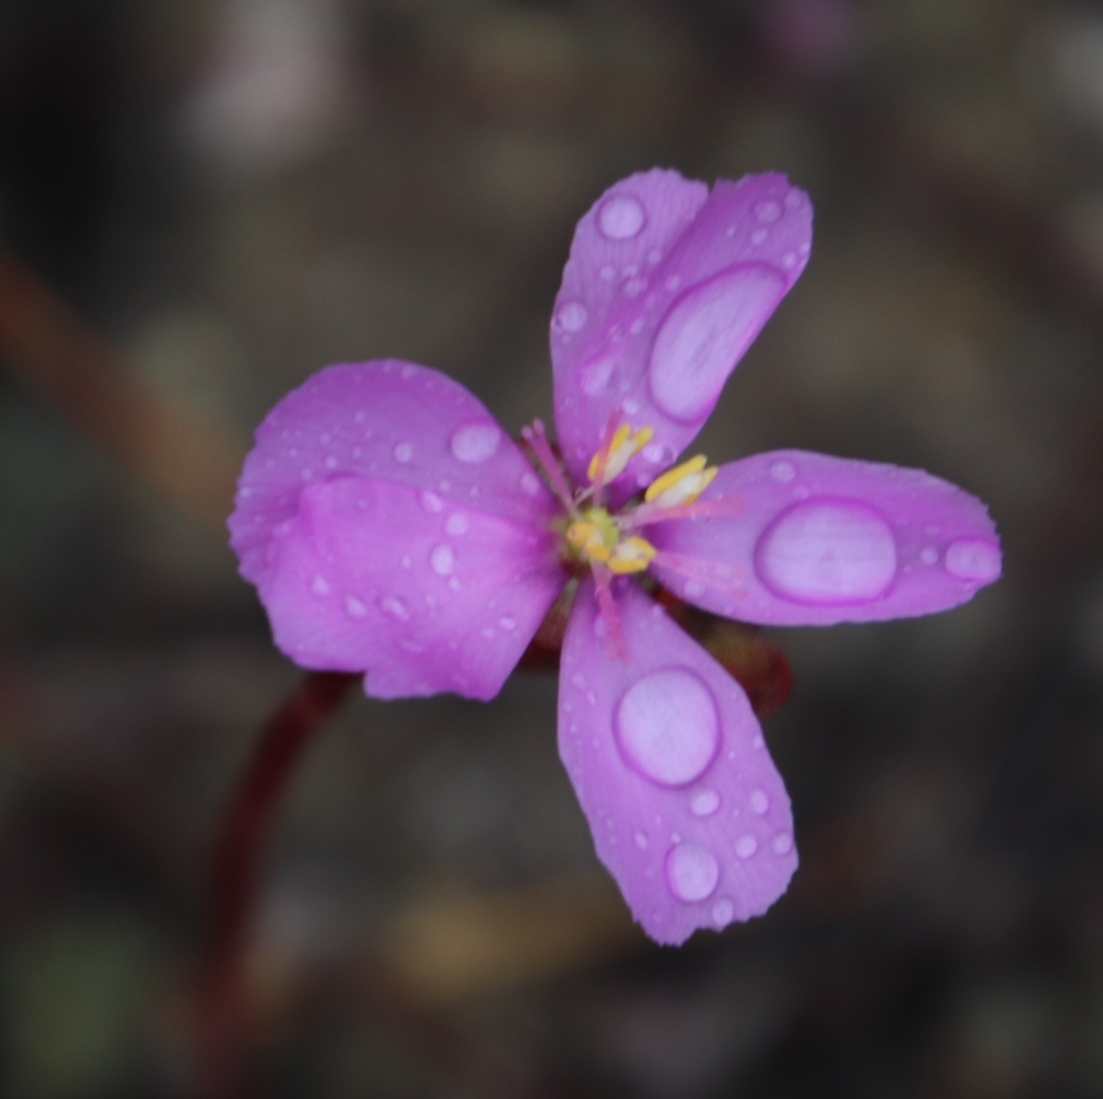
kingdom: Plantae
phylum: Tracheophyta
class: Magnoliopsida
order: Caryophyllales
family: Droseraceae
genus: Drosera
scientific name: Drosera aliciae
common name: Alice sundew
